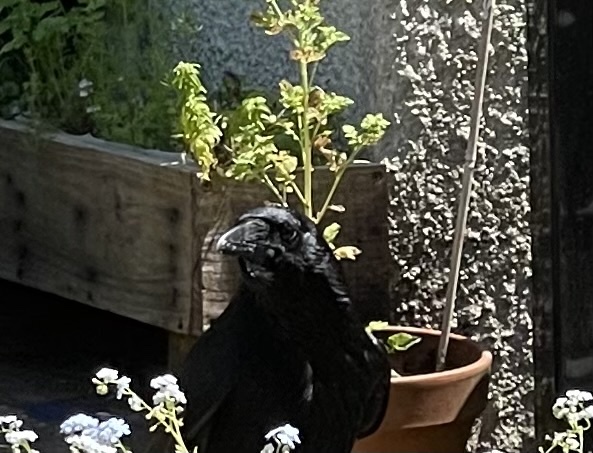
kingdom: Animalia
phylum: Chordata
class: Aves
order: Passeriformes
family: Corvidae
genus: Corvus
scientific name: Corvus corax
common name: Common raven
